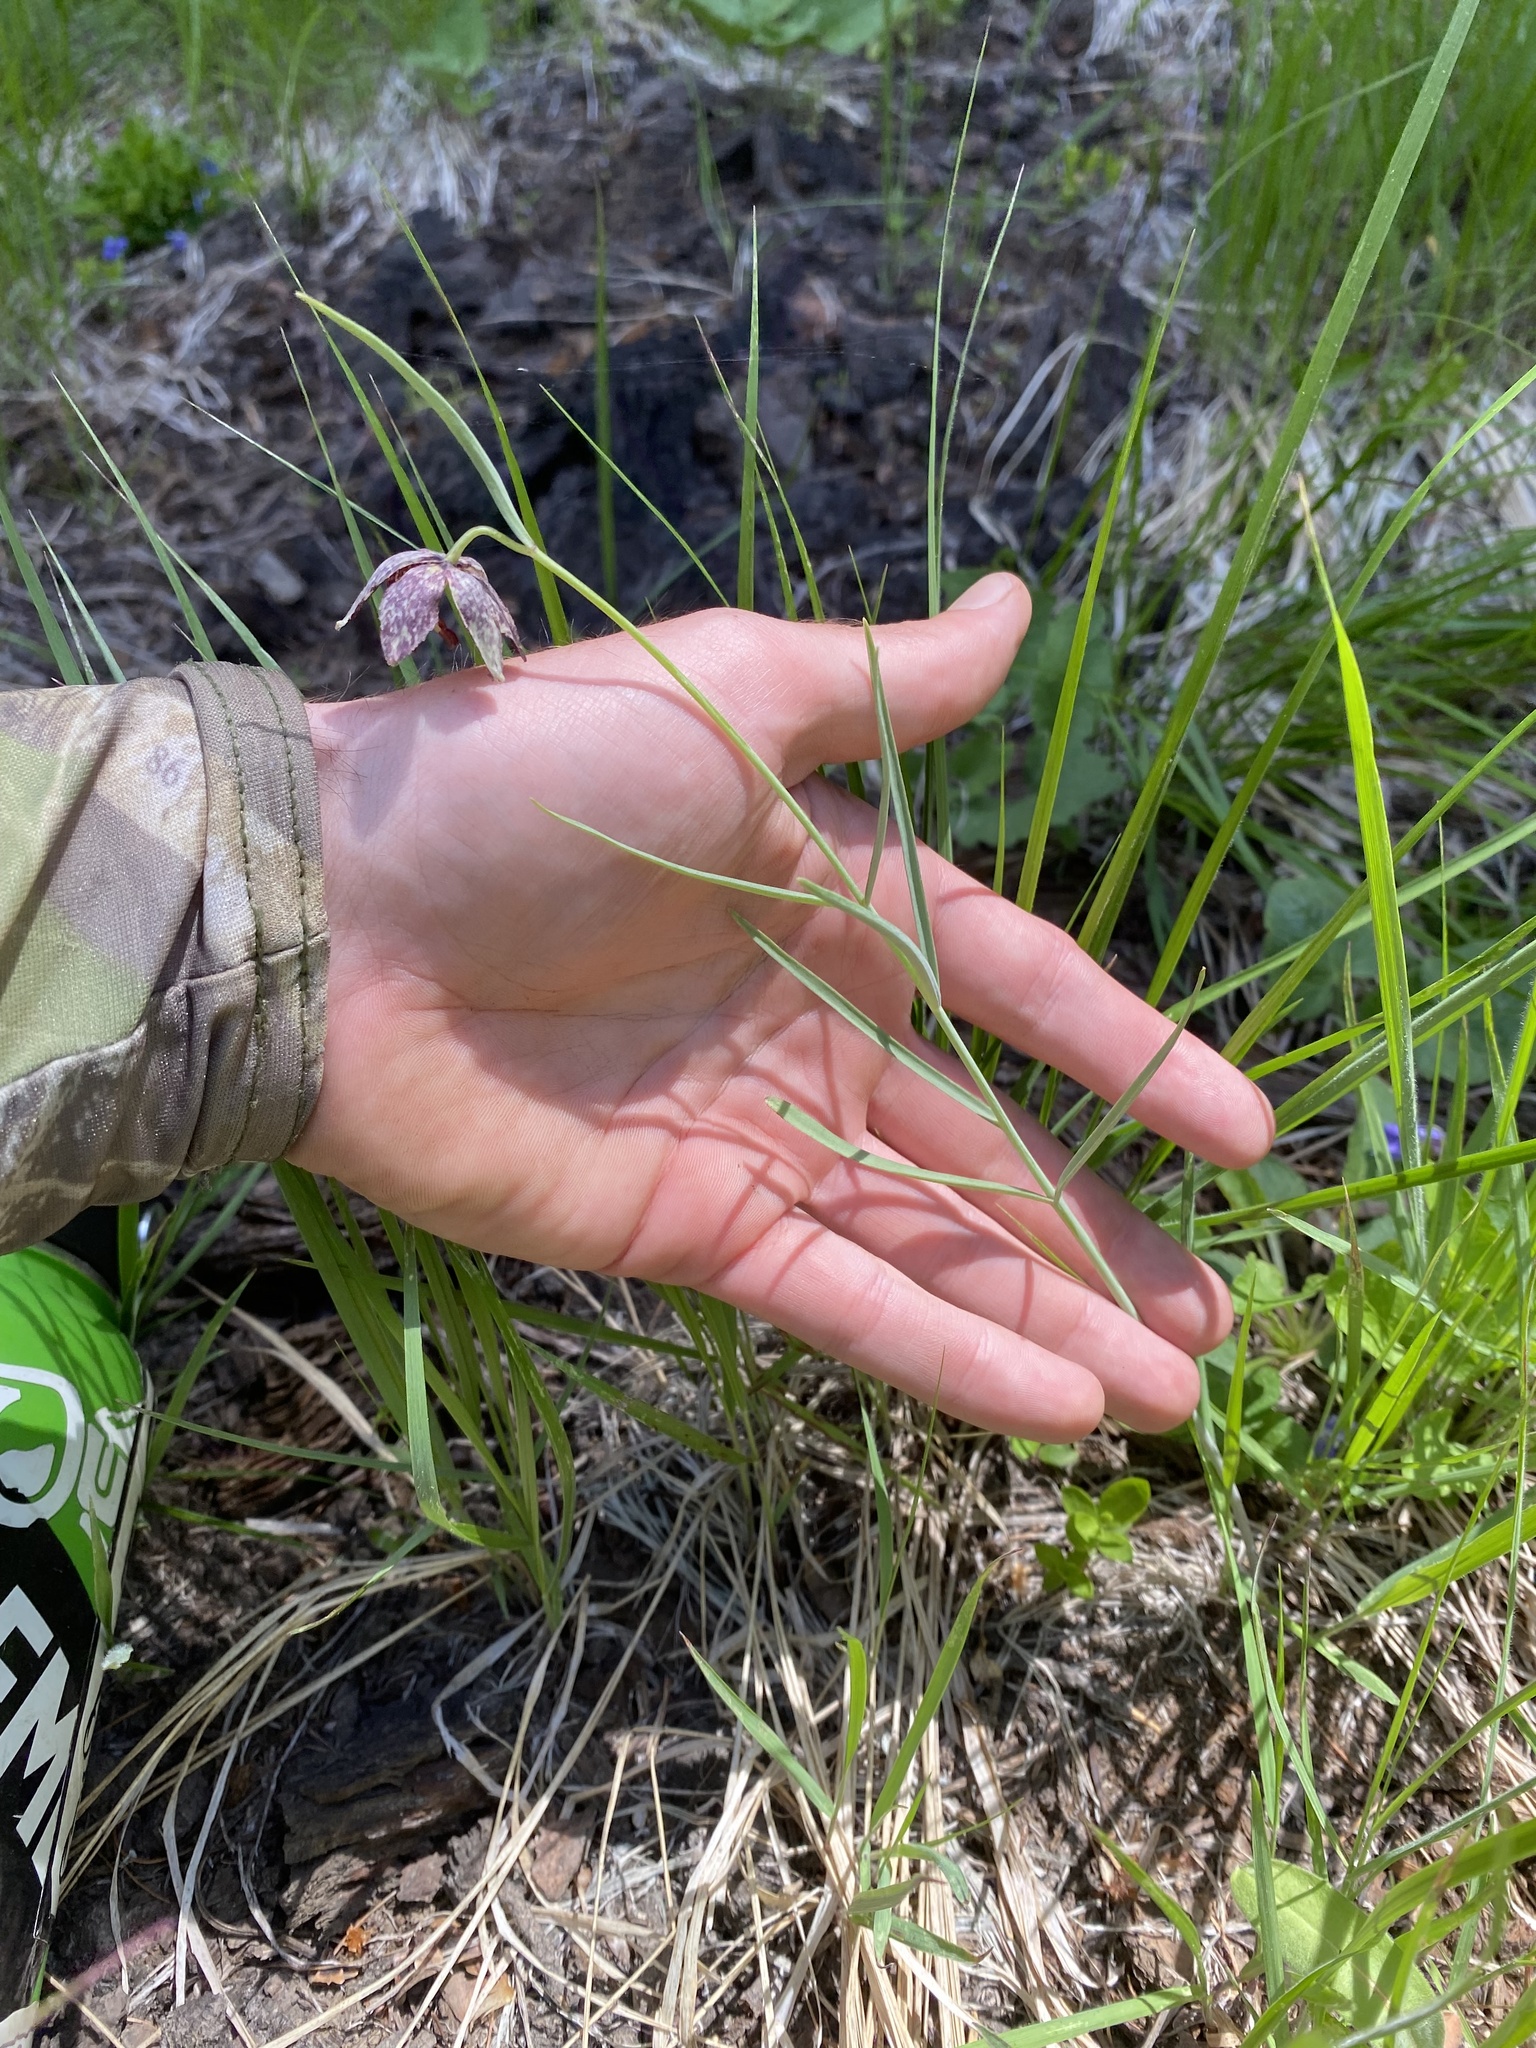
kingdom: Plantae
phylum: Tracheophyta
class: Liliopsida
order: Liliales
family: Liliaceae
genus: Fritillaria
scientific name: Fritillaria atropurpurea
